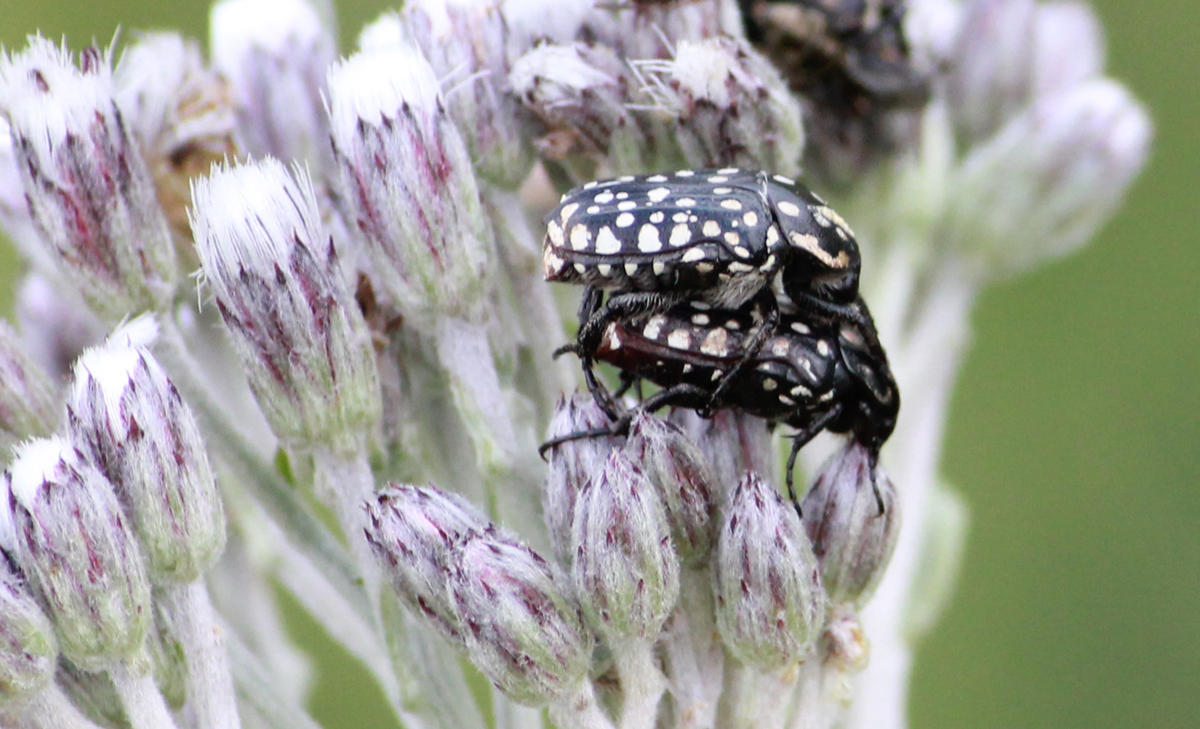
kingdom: Animalia
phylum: Arthropoda
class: Insecta
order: Coleoptera
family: Scarabaeidae
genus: Cyrtothyrea
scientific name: Cyrtothyrea testaceoguttata
